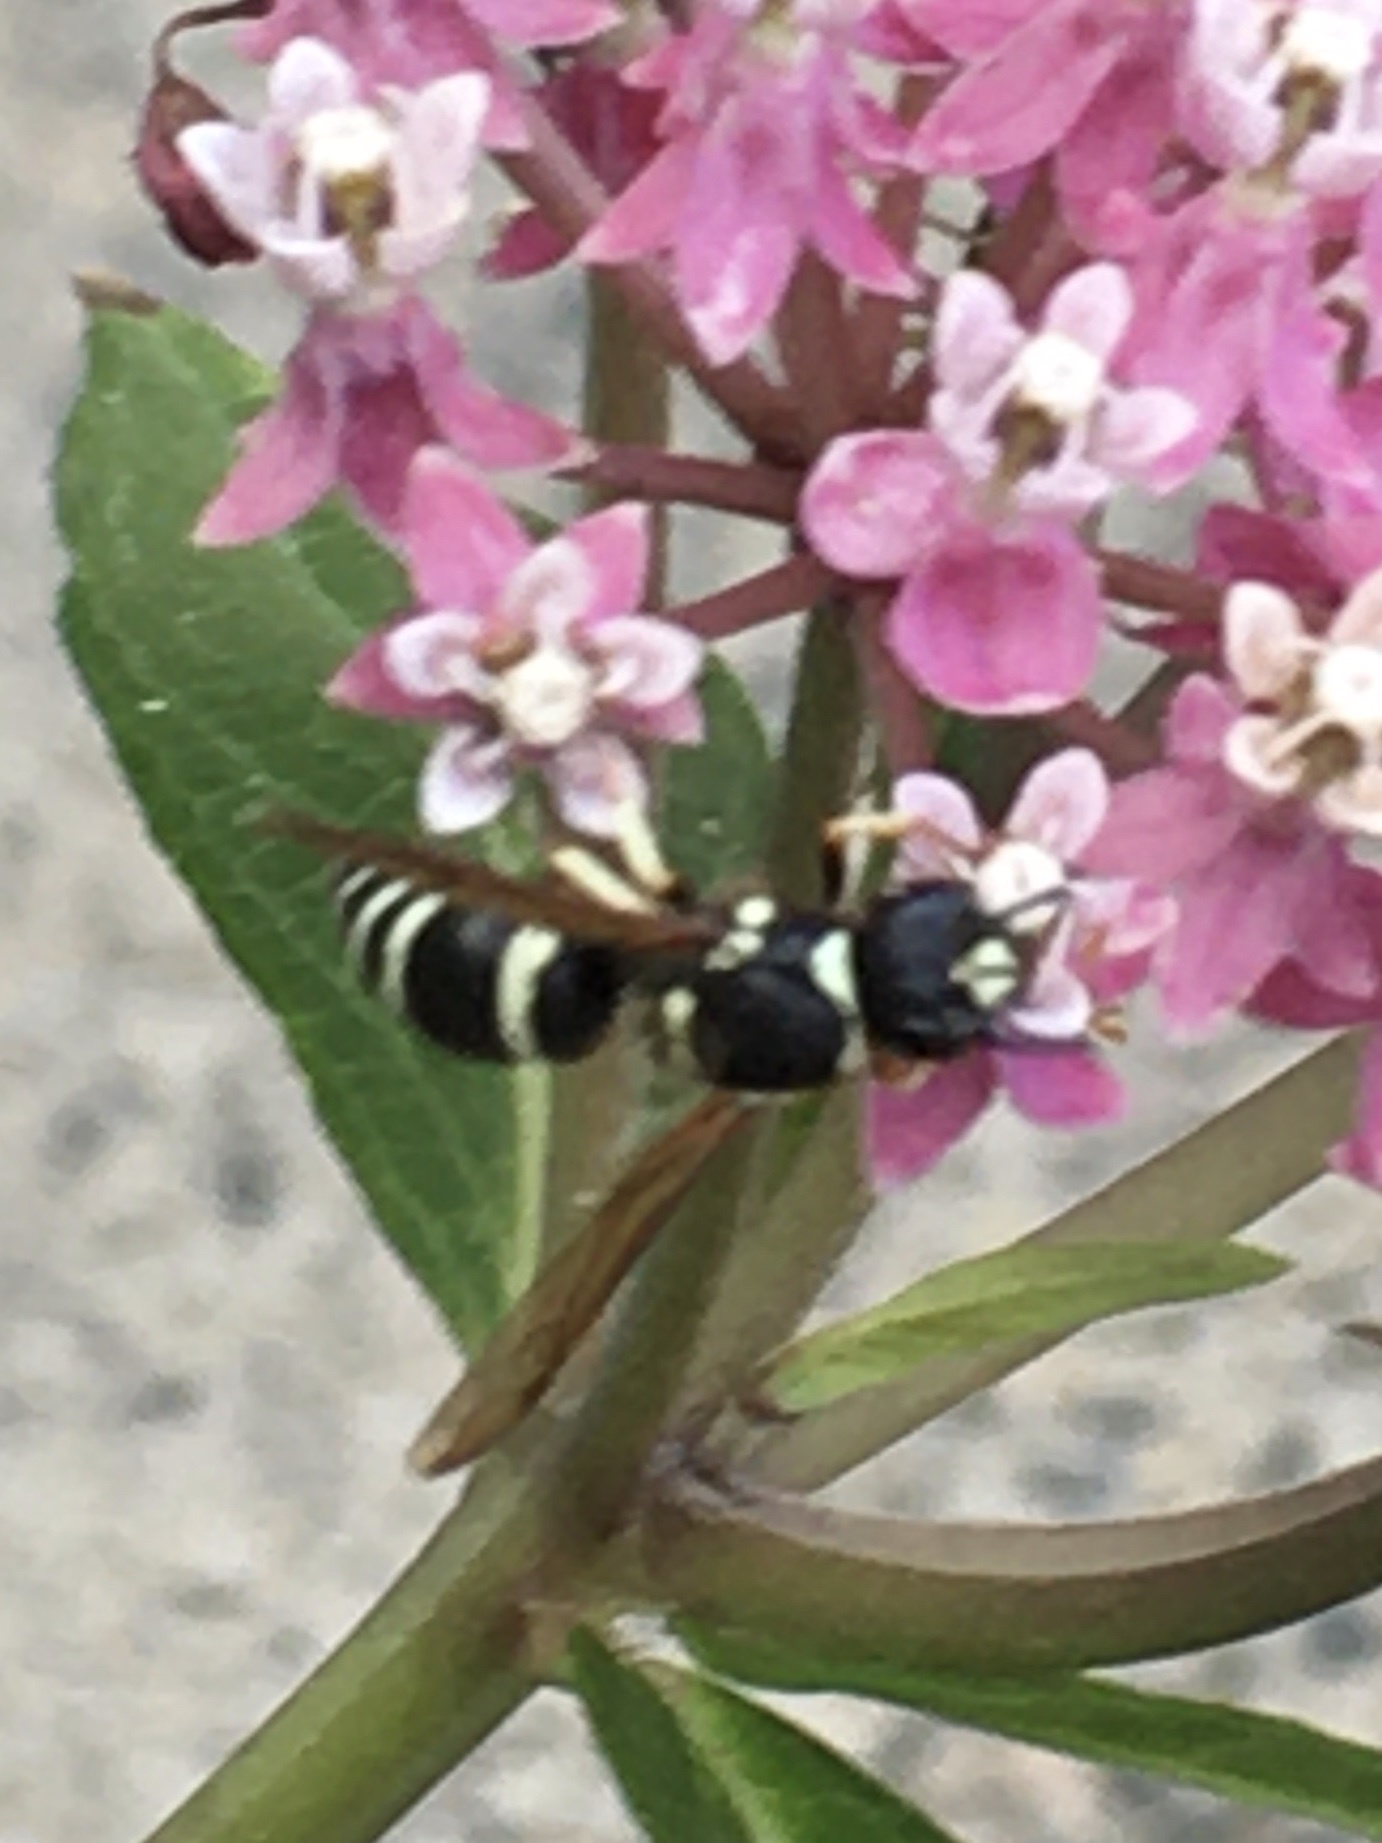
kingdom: Animalia
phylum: Arthropoda
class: Insecta
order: Hymenoptera
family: Vespidae
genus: Ancistrocerus
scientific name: Ancistrocerus
